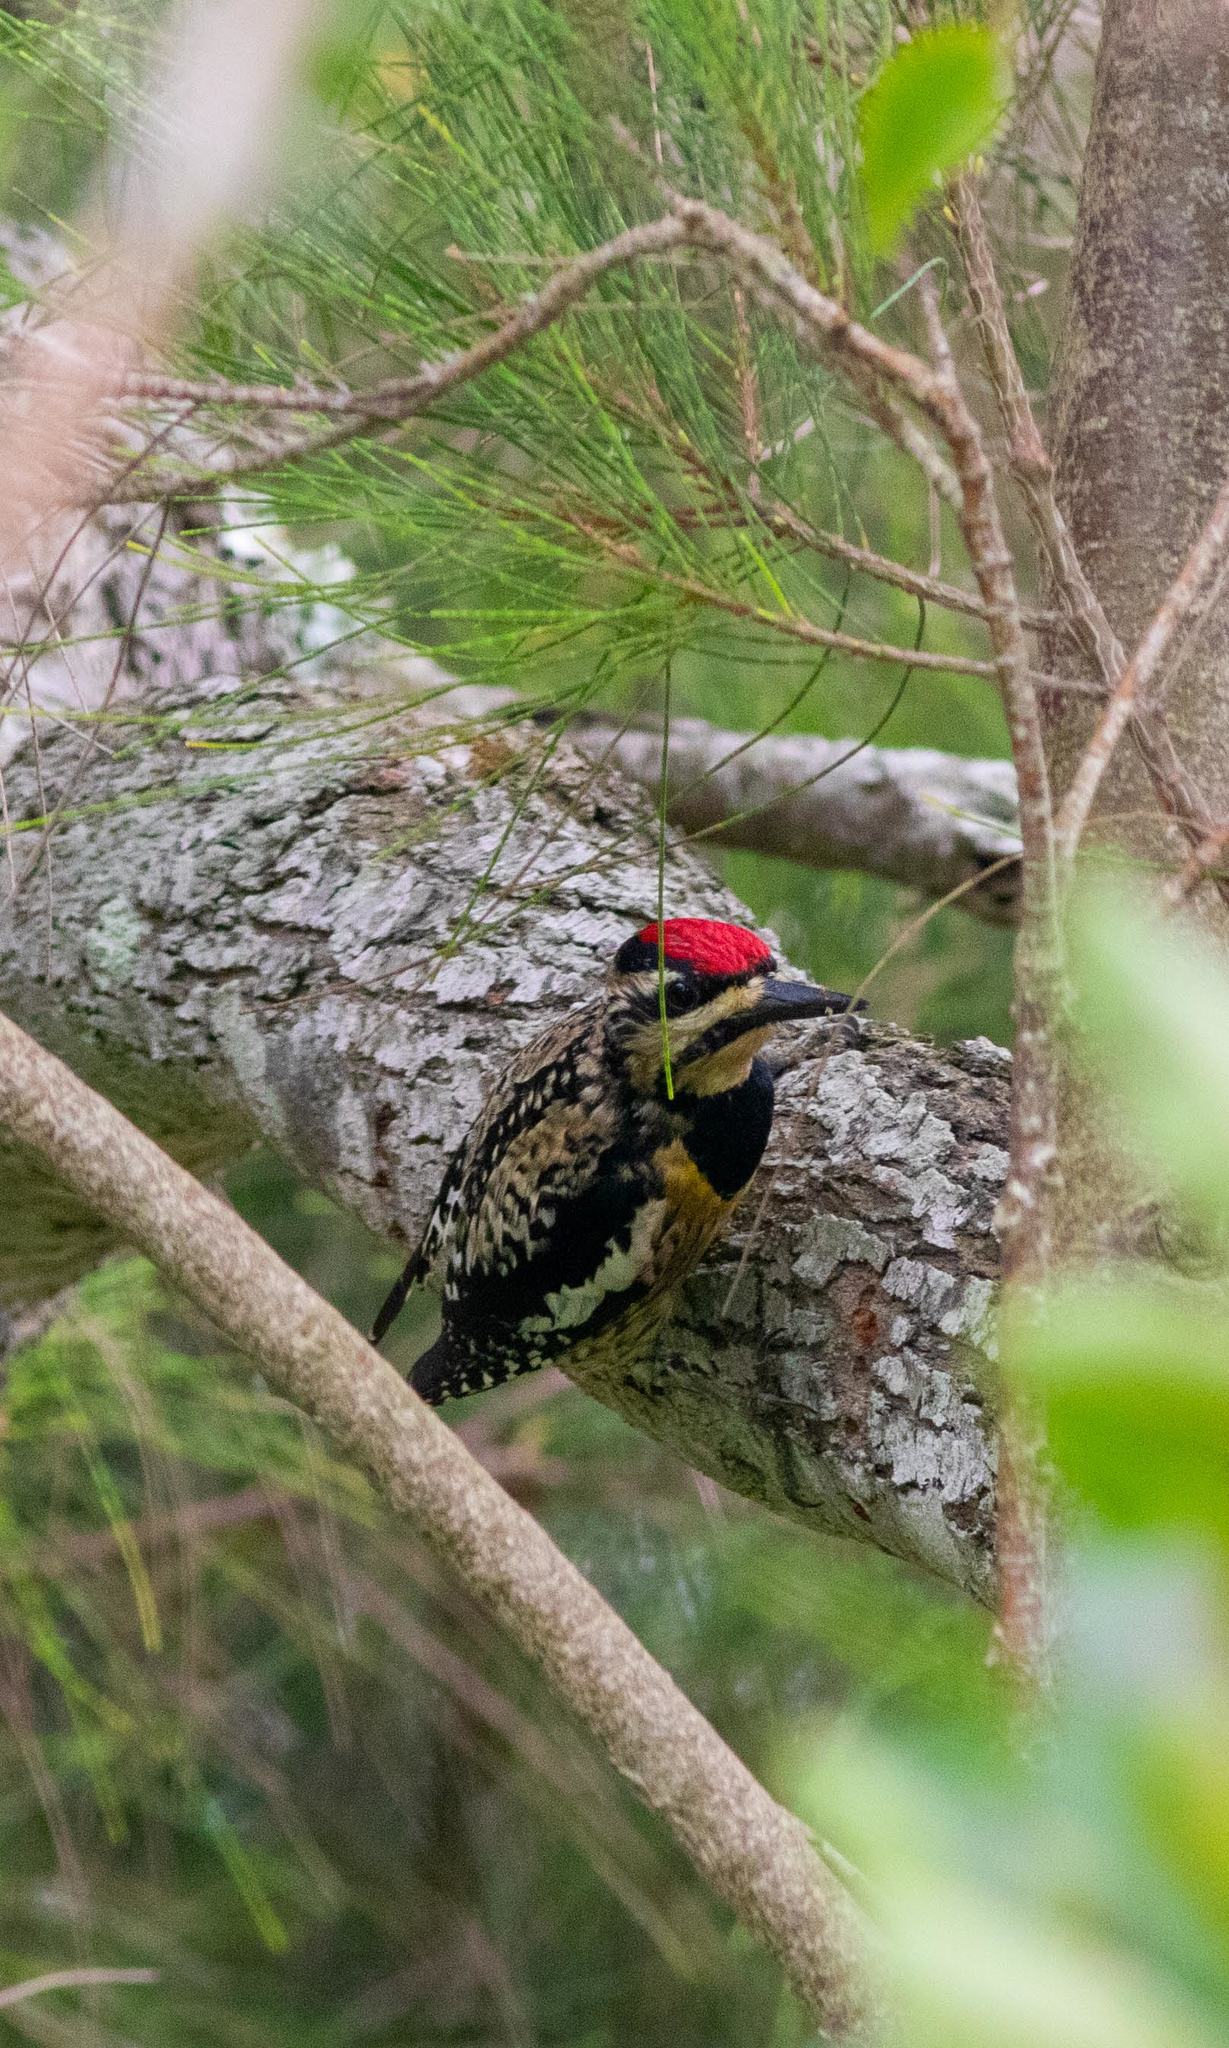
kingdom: Animalia
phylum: Chordata
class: Aves
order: Piciformes
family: Picidae
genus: Sphyrapicus
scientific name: Sphyrapicus varius
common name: Yellow-bellied sapsucker
